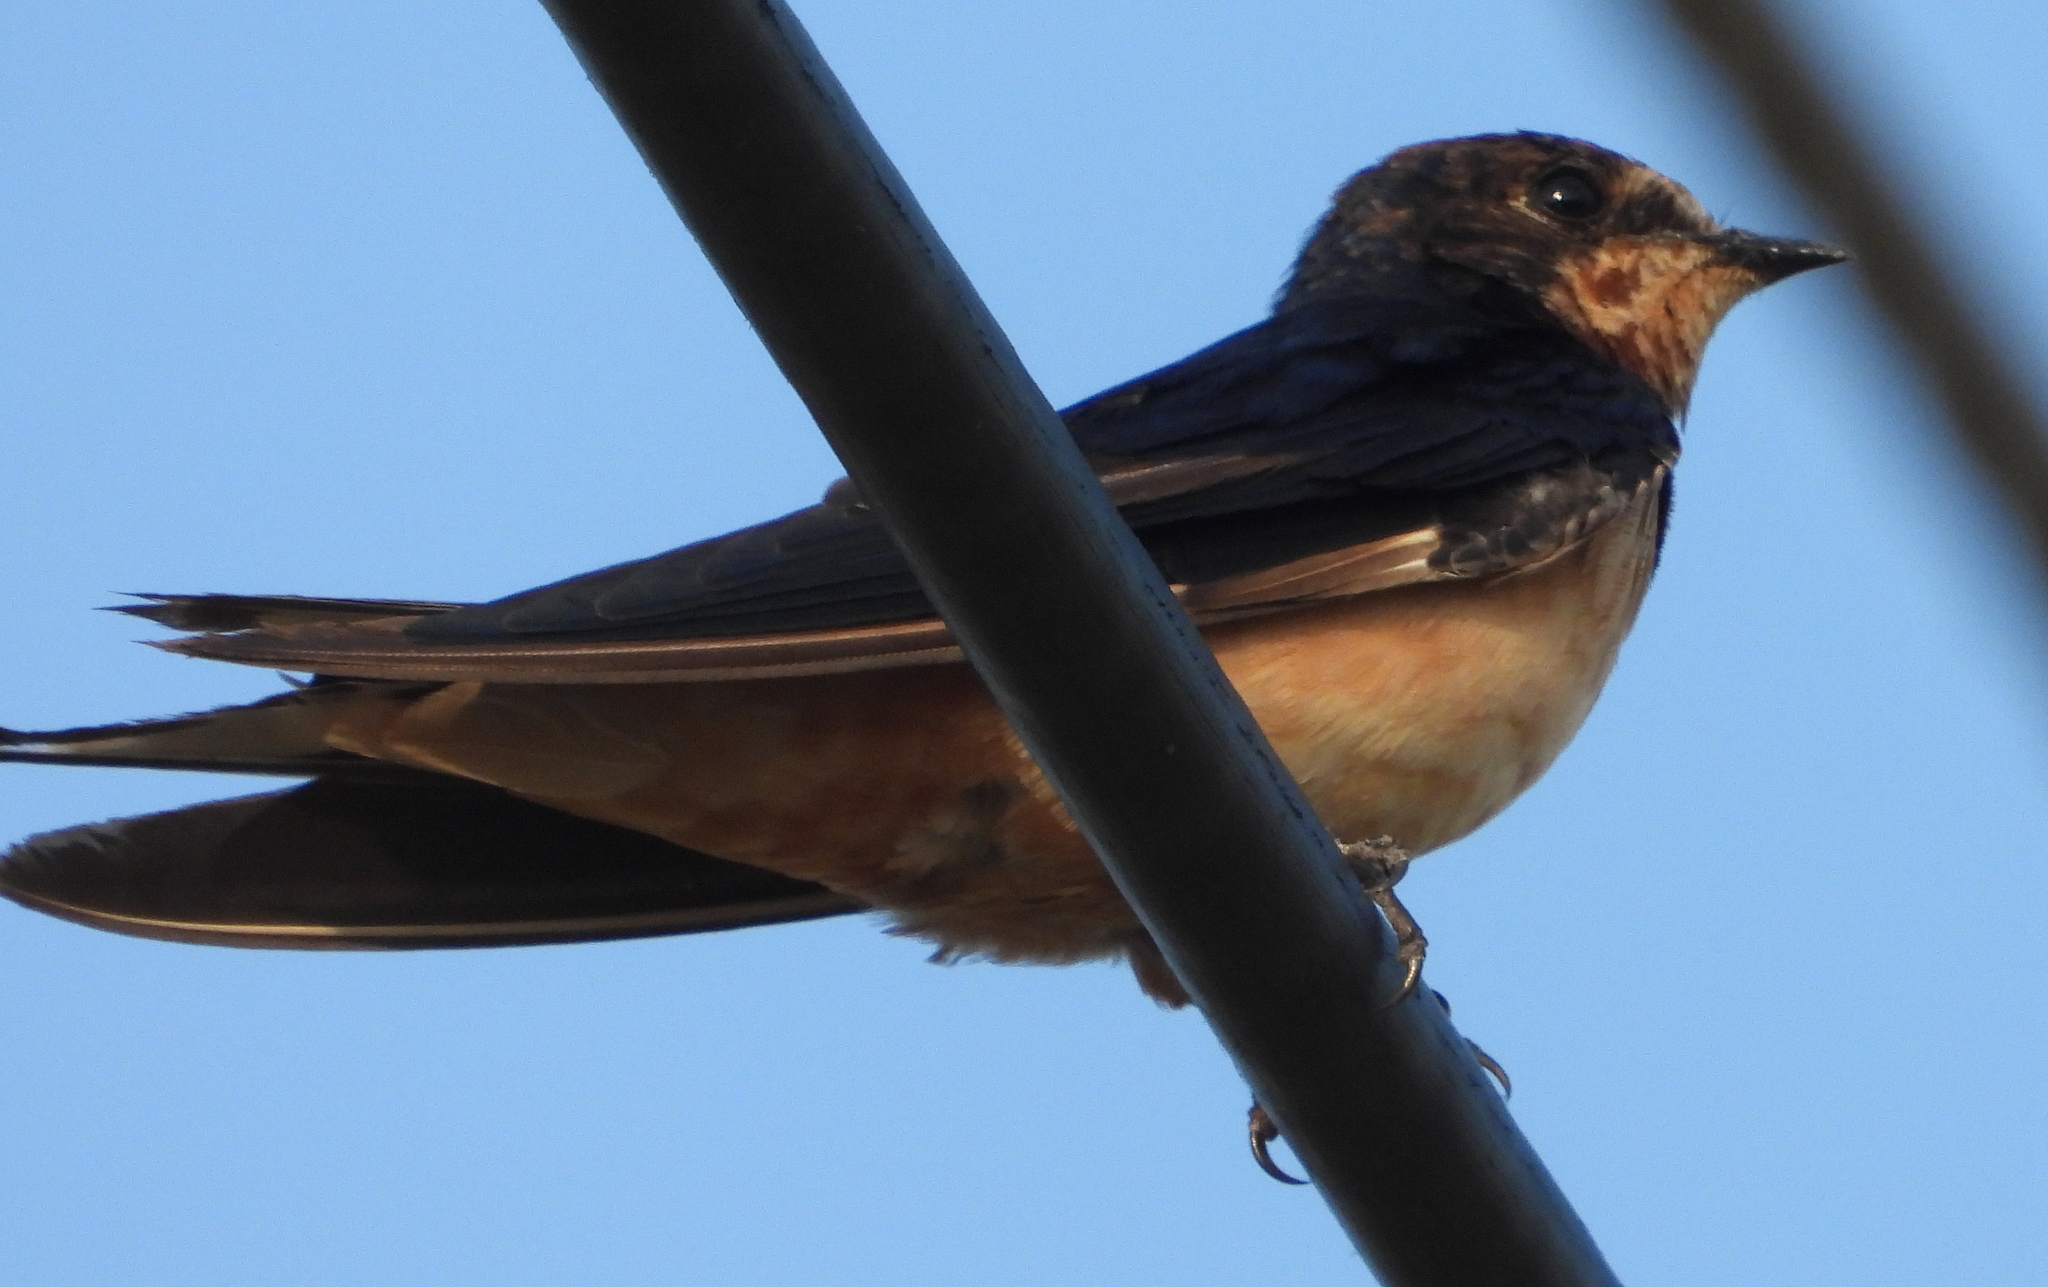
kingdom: Animalia
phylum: Chordata
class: Aves
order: Passeriformes
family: Hirundinidae
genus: Hirundo
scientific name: Hirundo rustica
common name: Barn swallow
